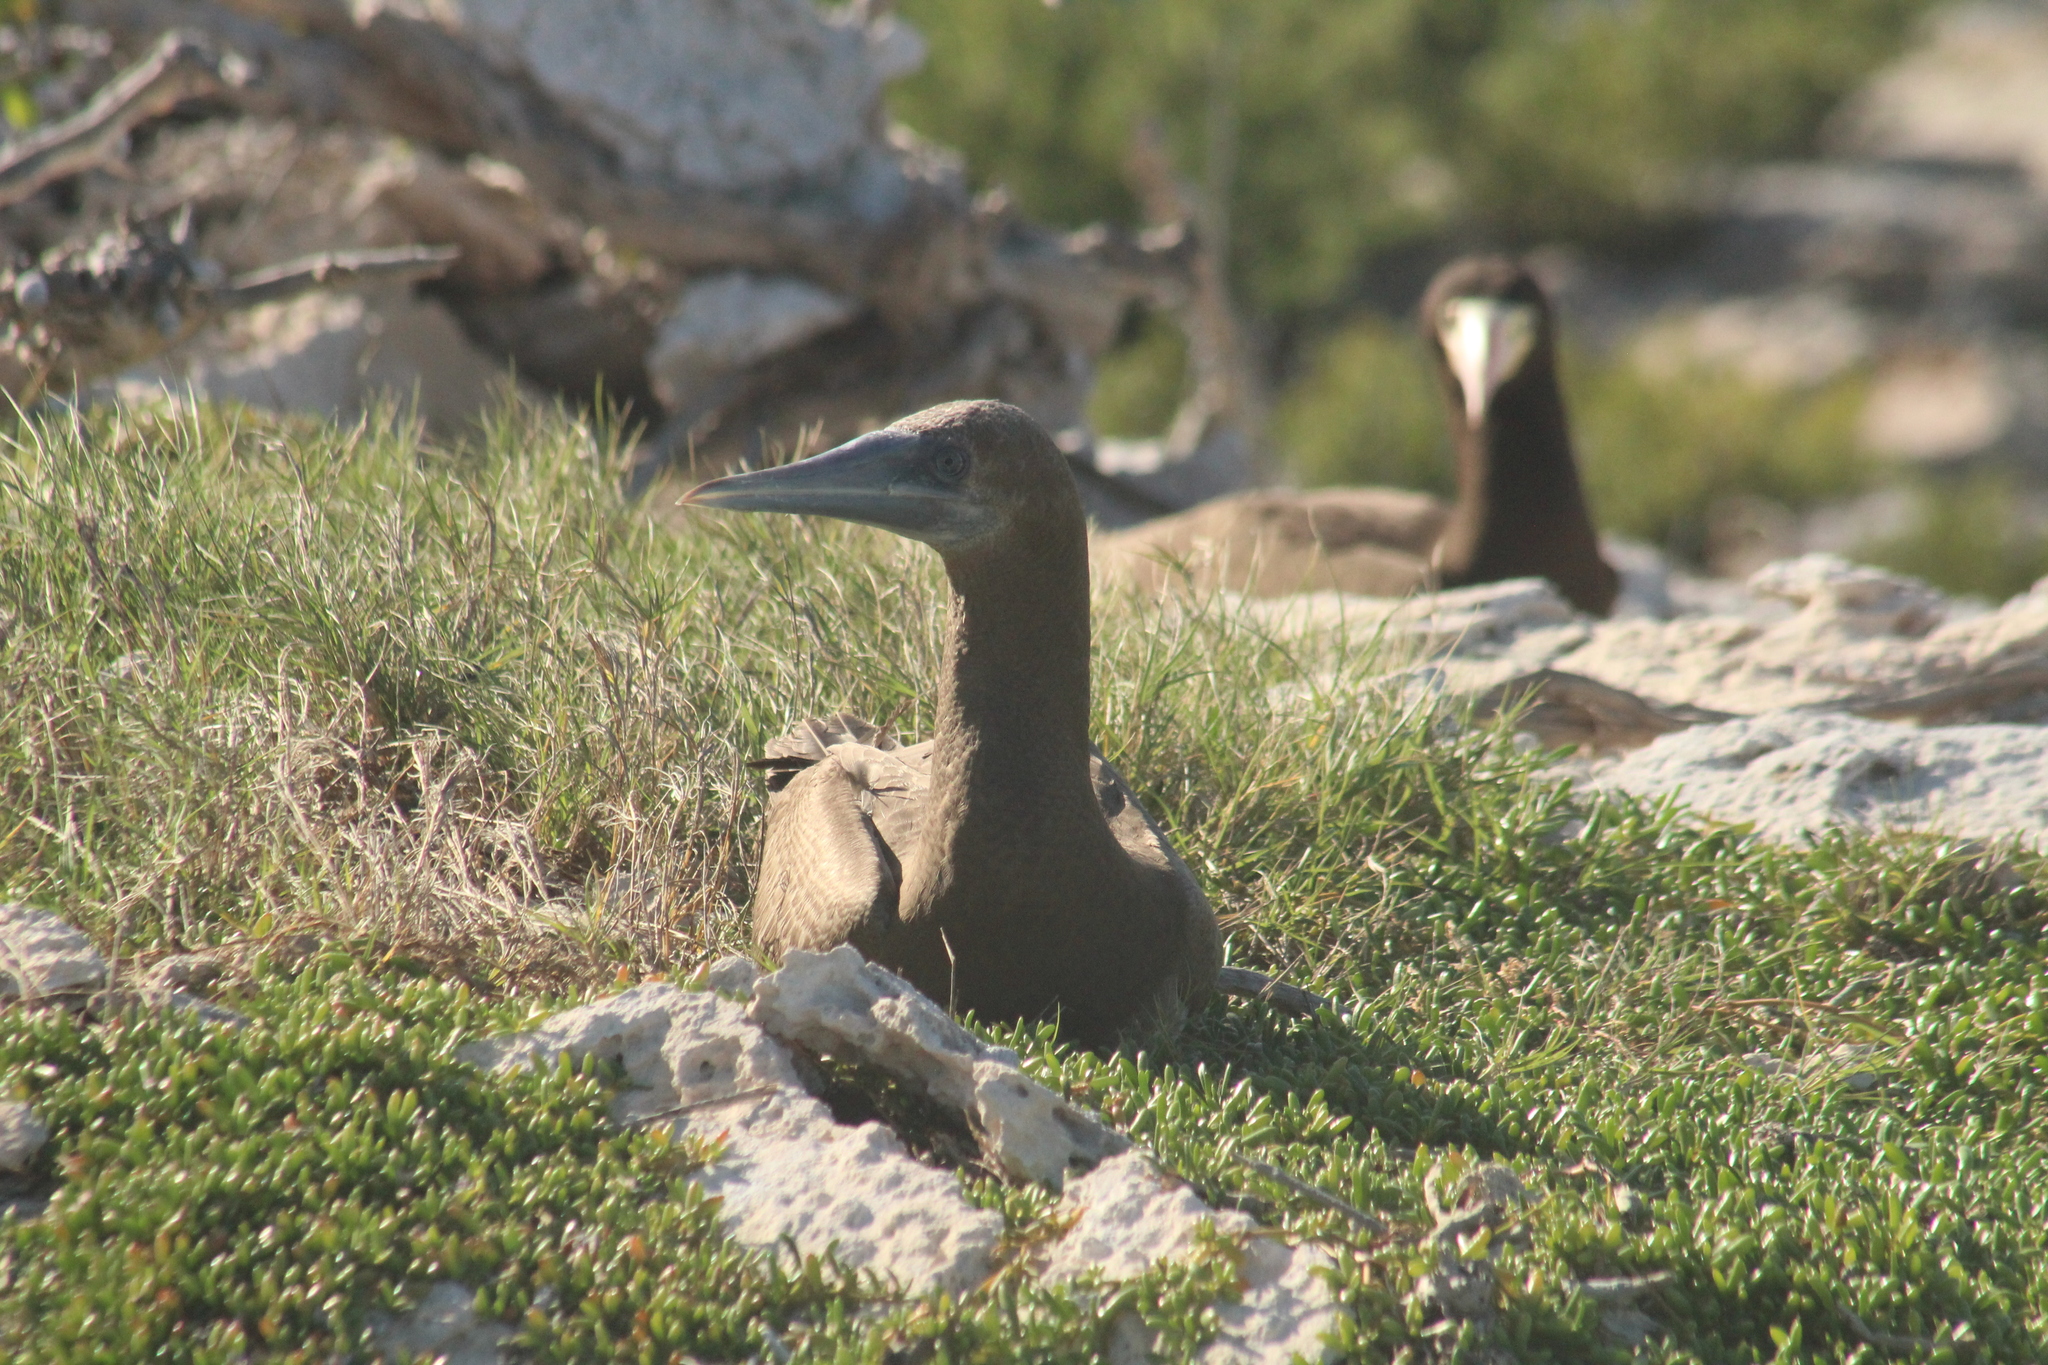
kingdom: Animalia
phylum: Chordata
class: Aves
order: Suliformes
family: Sulidae
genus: Sula
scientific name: Sula leucogaster
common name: Brown booby
